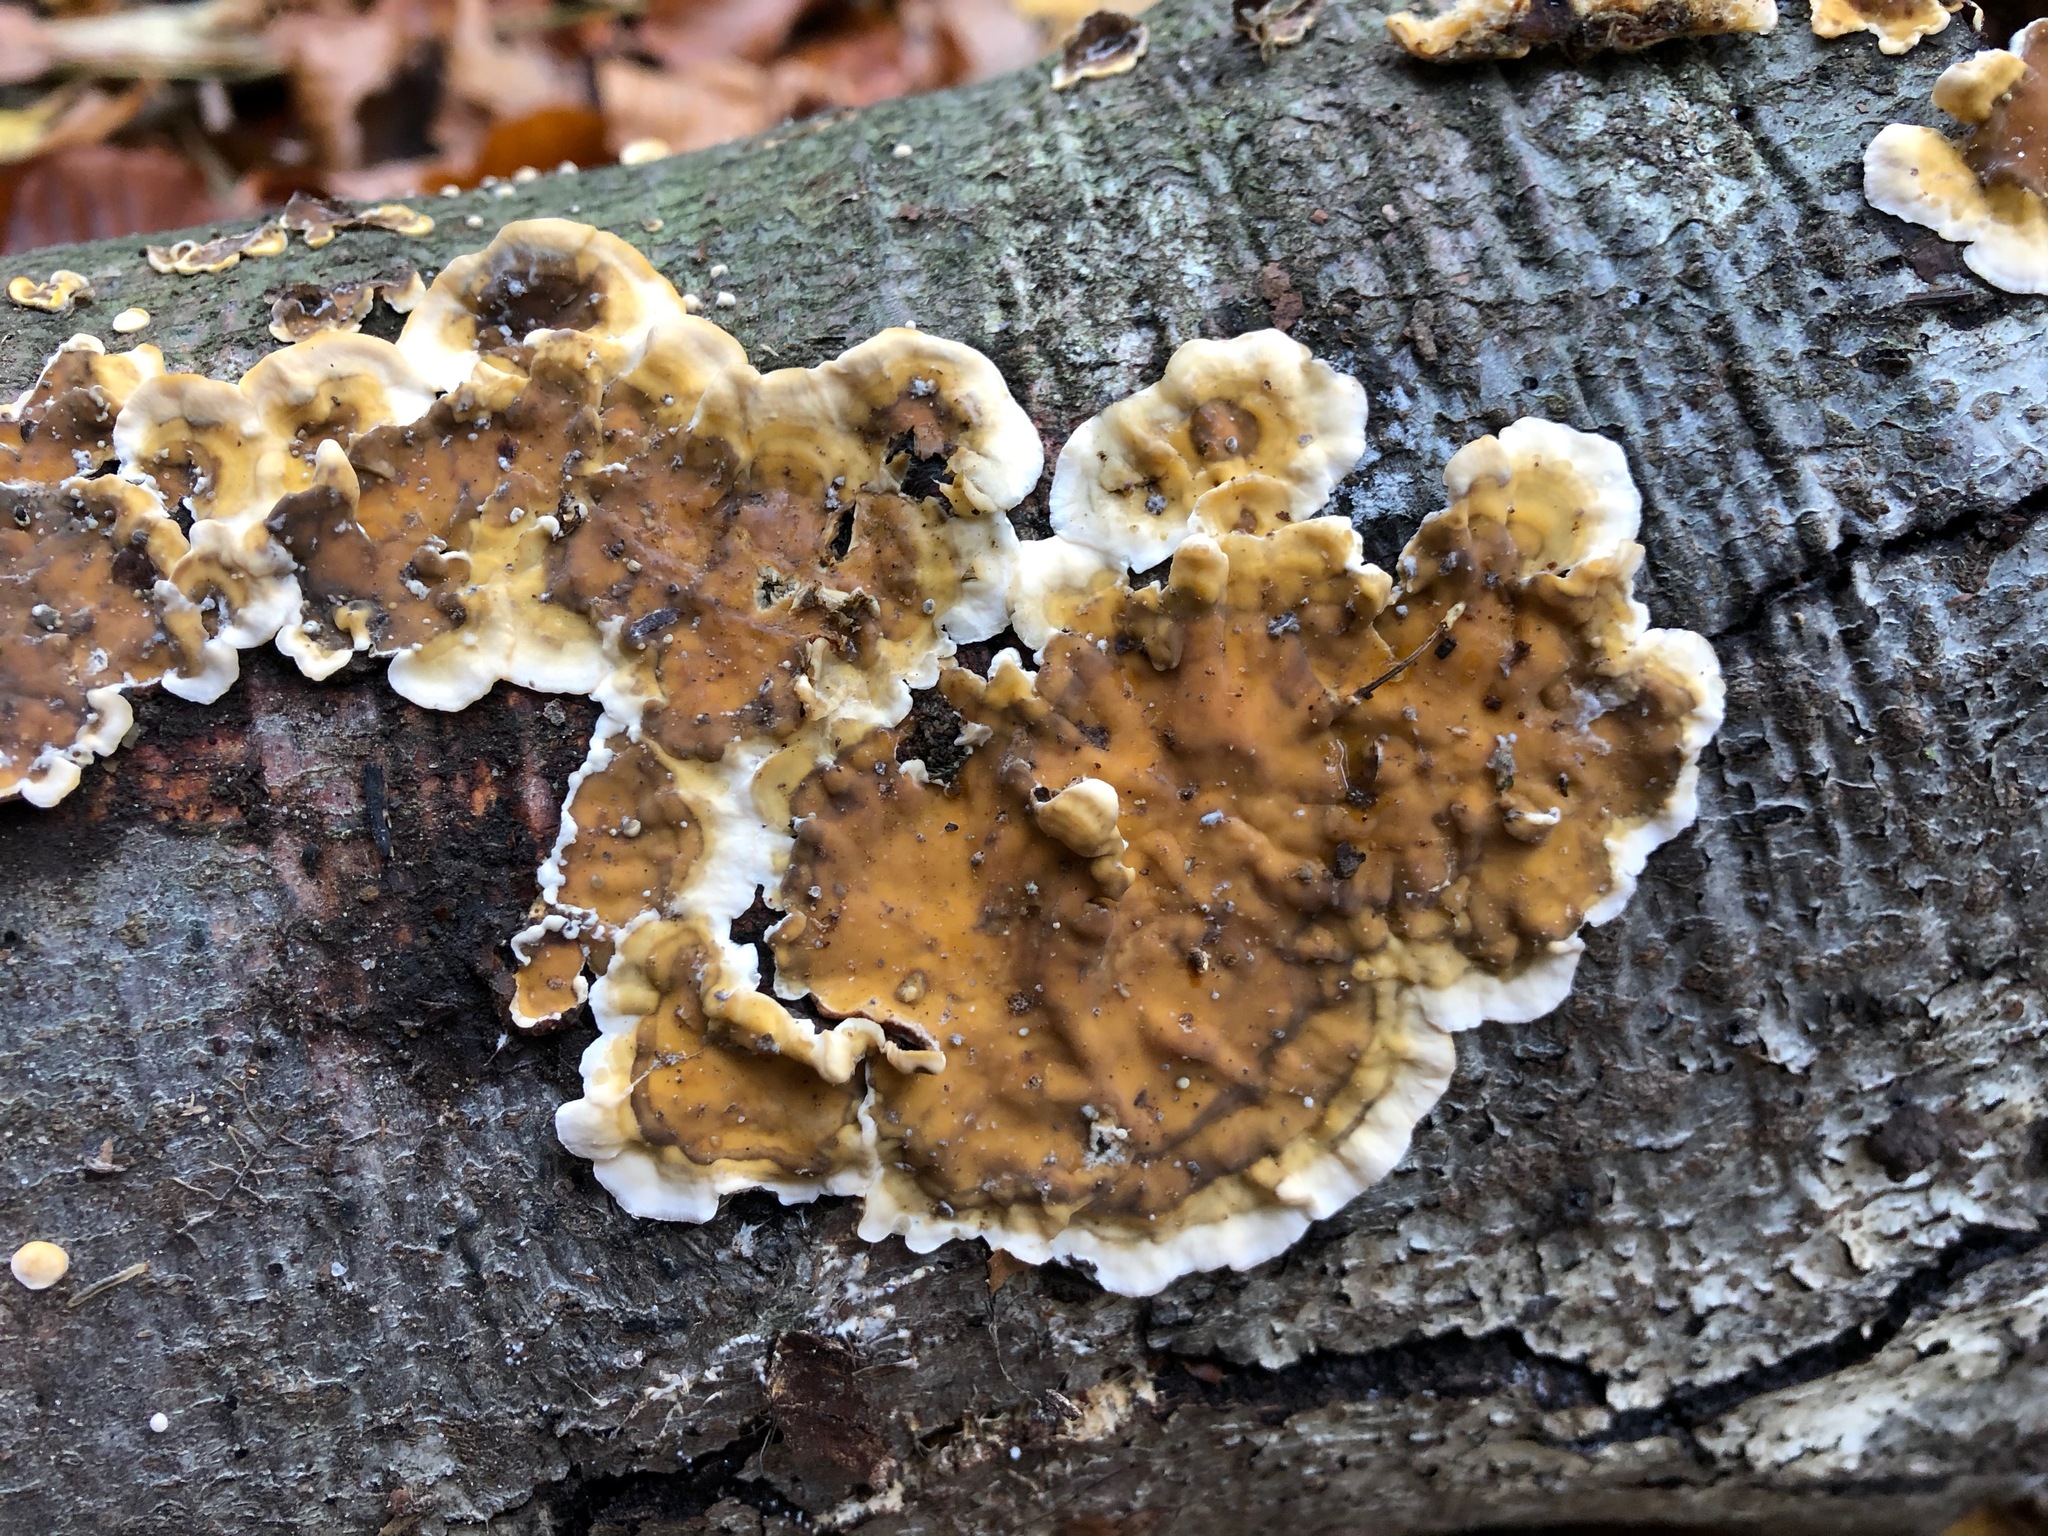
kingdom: Fungi
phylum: Basidiomycota
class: Agaricomycetes
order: Russulales
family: Stereaceae
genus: Stereum
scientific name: Stereum hirsutum
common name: Hairy curtain crust
